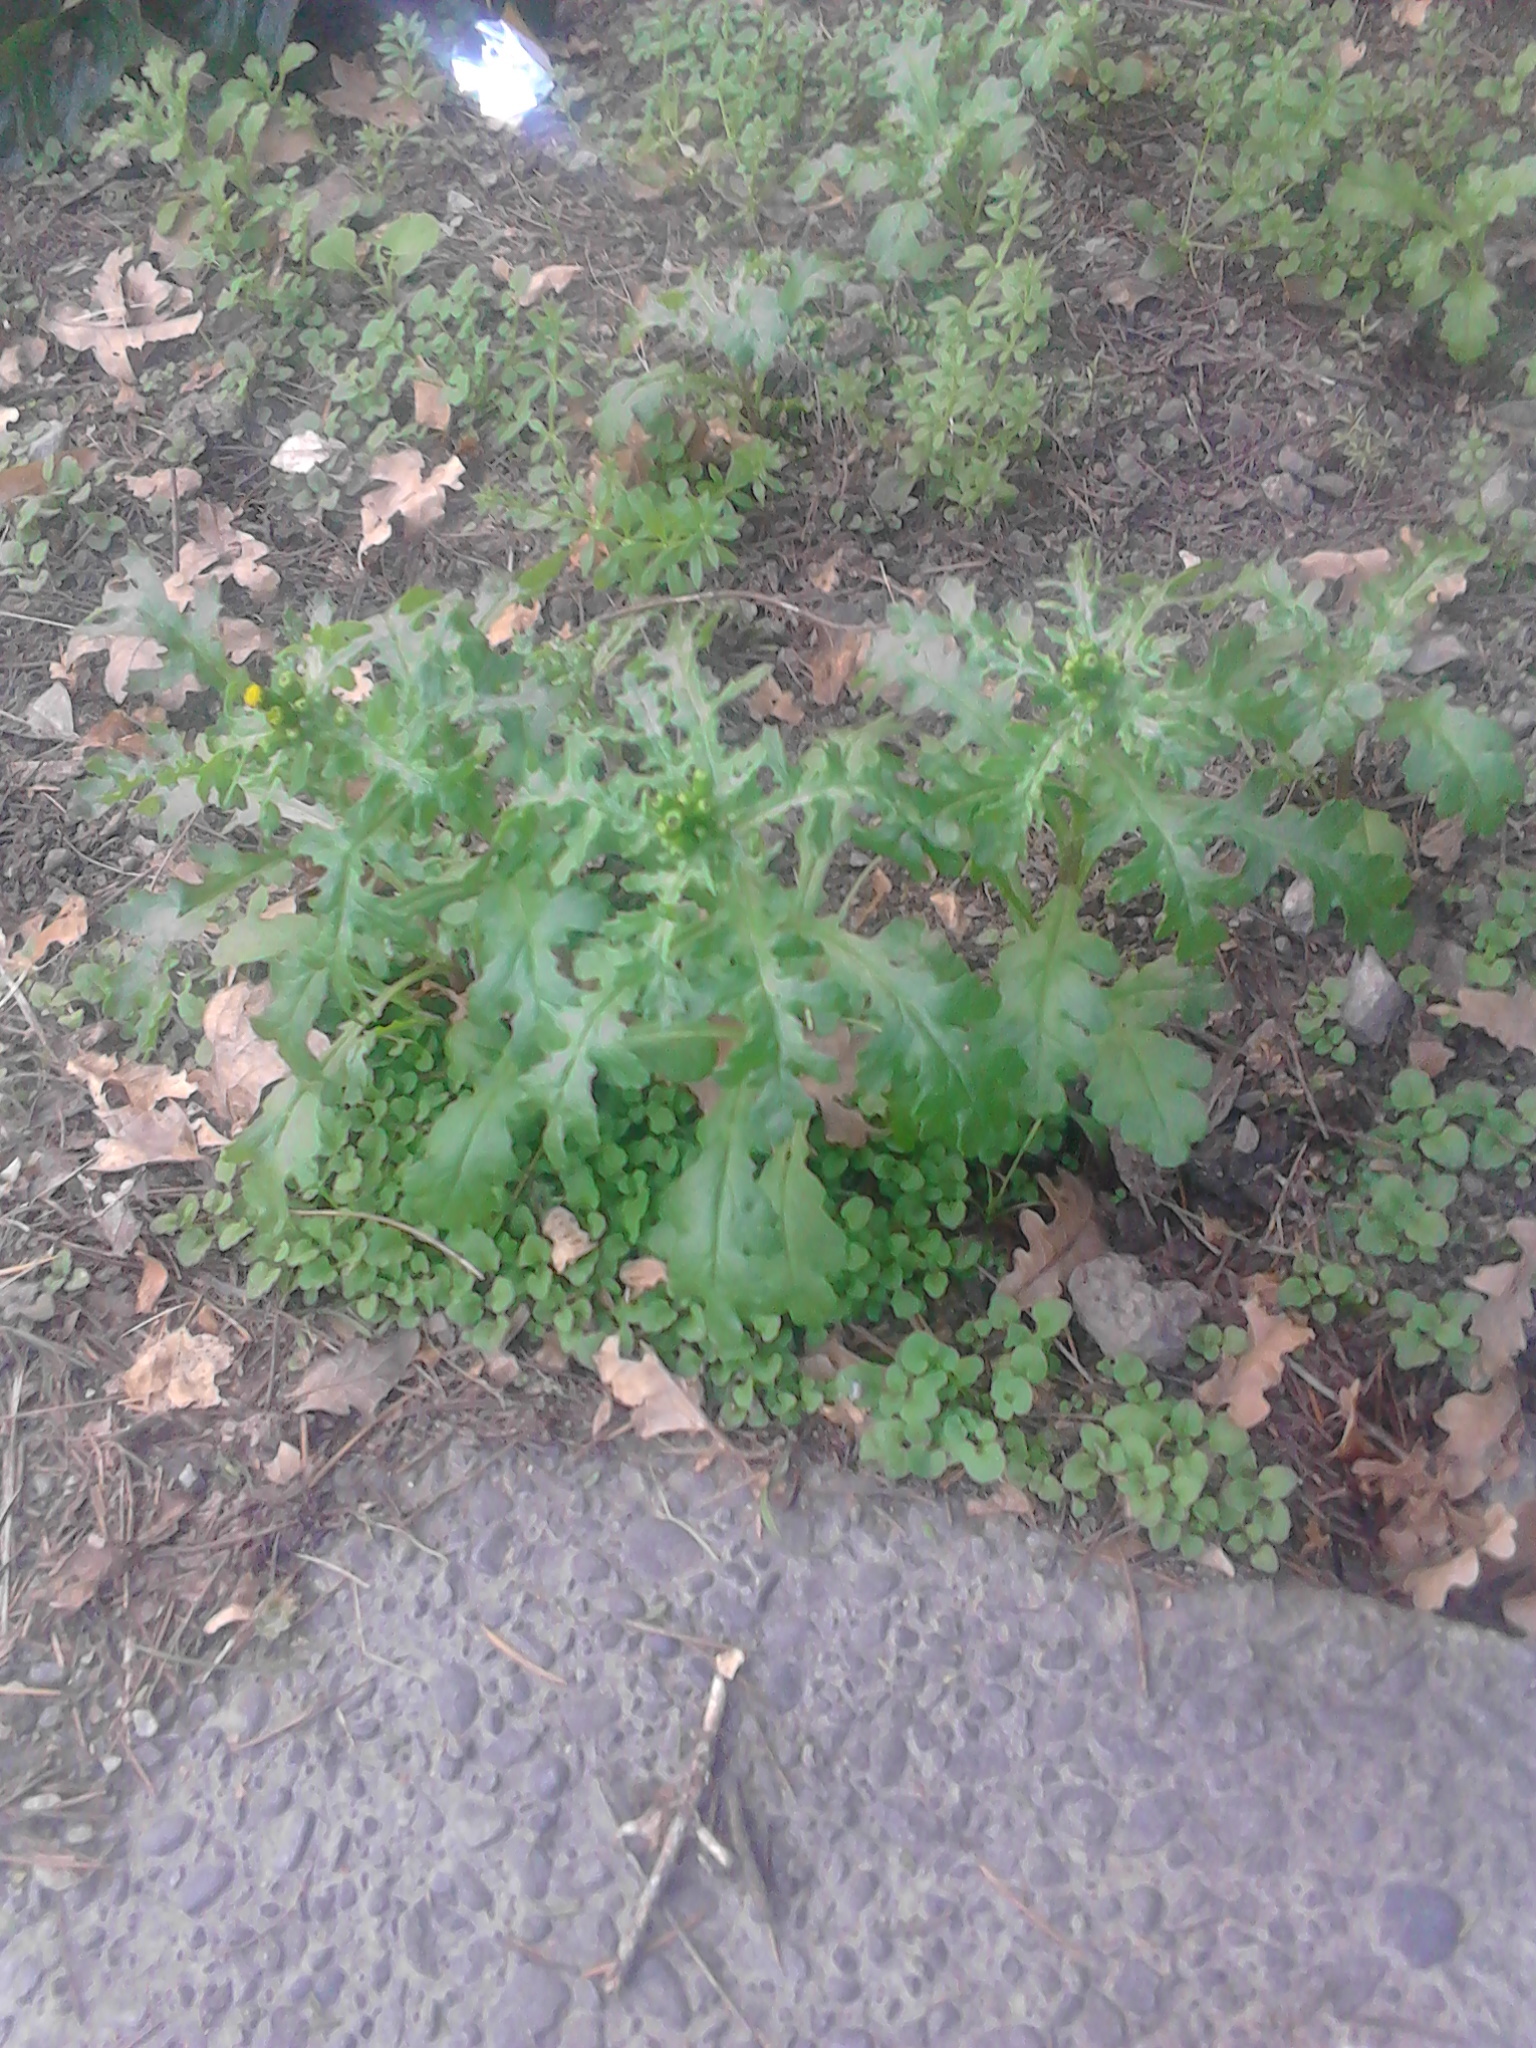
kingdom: Plantae
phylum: Tracheophyta
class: Magnoliopsida
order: Asterales
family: Asteraceae
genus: Senecio
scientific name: Senecio vulgaris
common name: Old-man-in-the-spring
